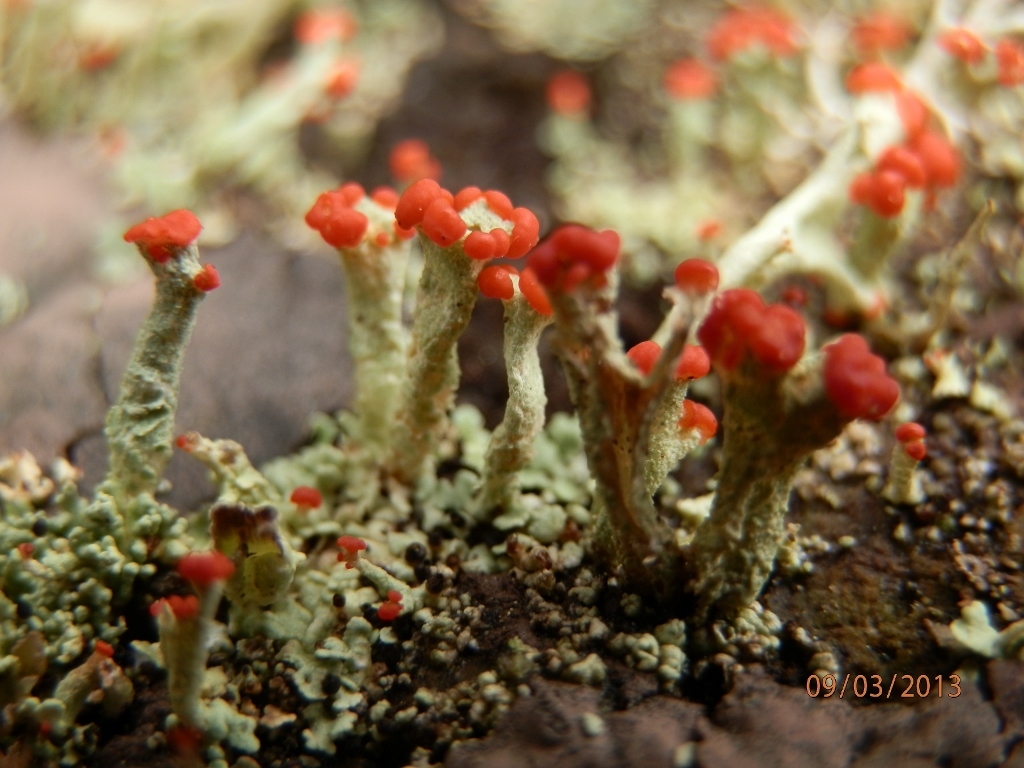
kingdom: Fungi
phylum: Ascomycota
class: Lecanoromycetes
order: Lecanorales
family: Cladoniaceae
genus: Cladonia
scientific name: Cladonia cristatella
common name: British soldier lichen
